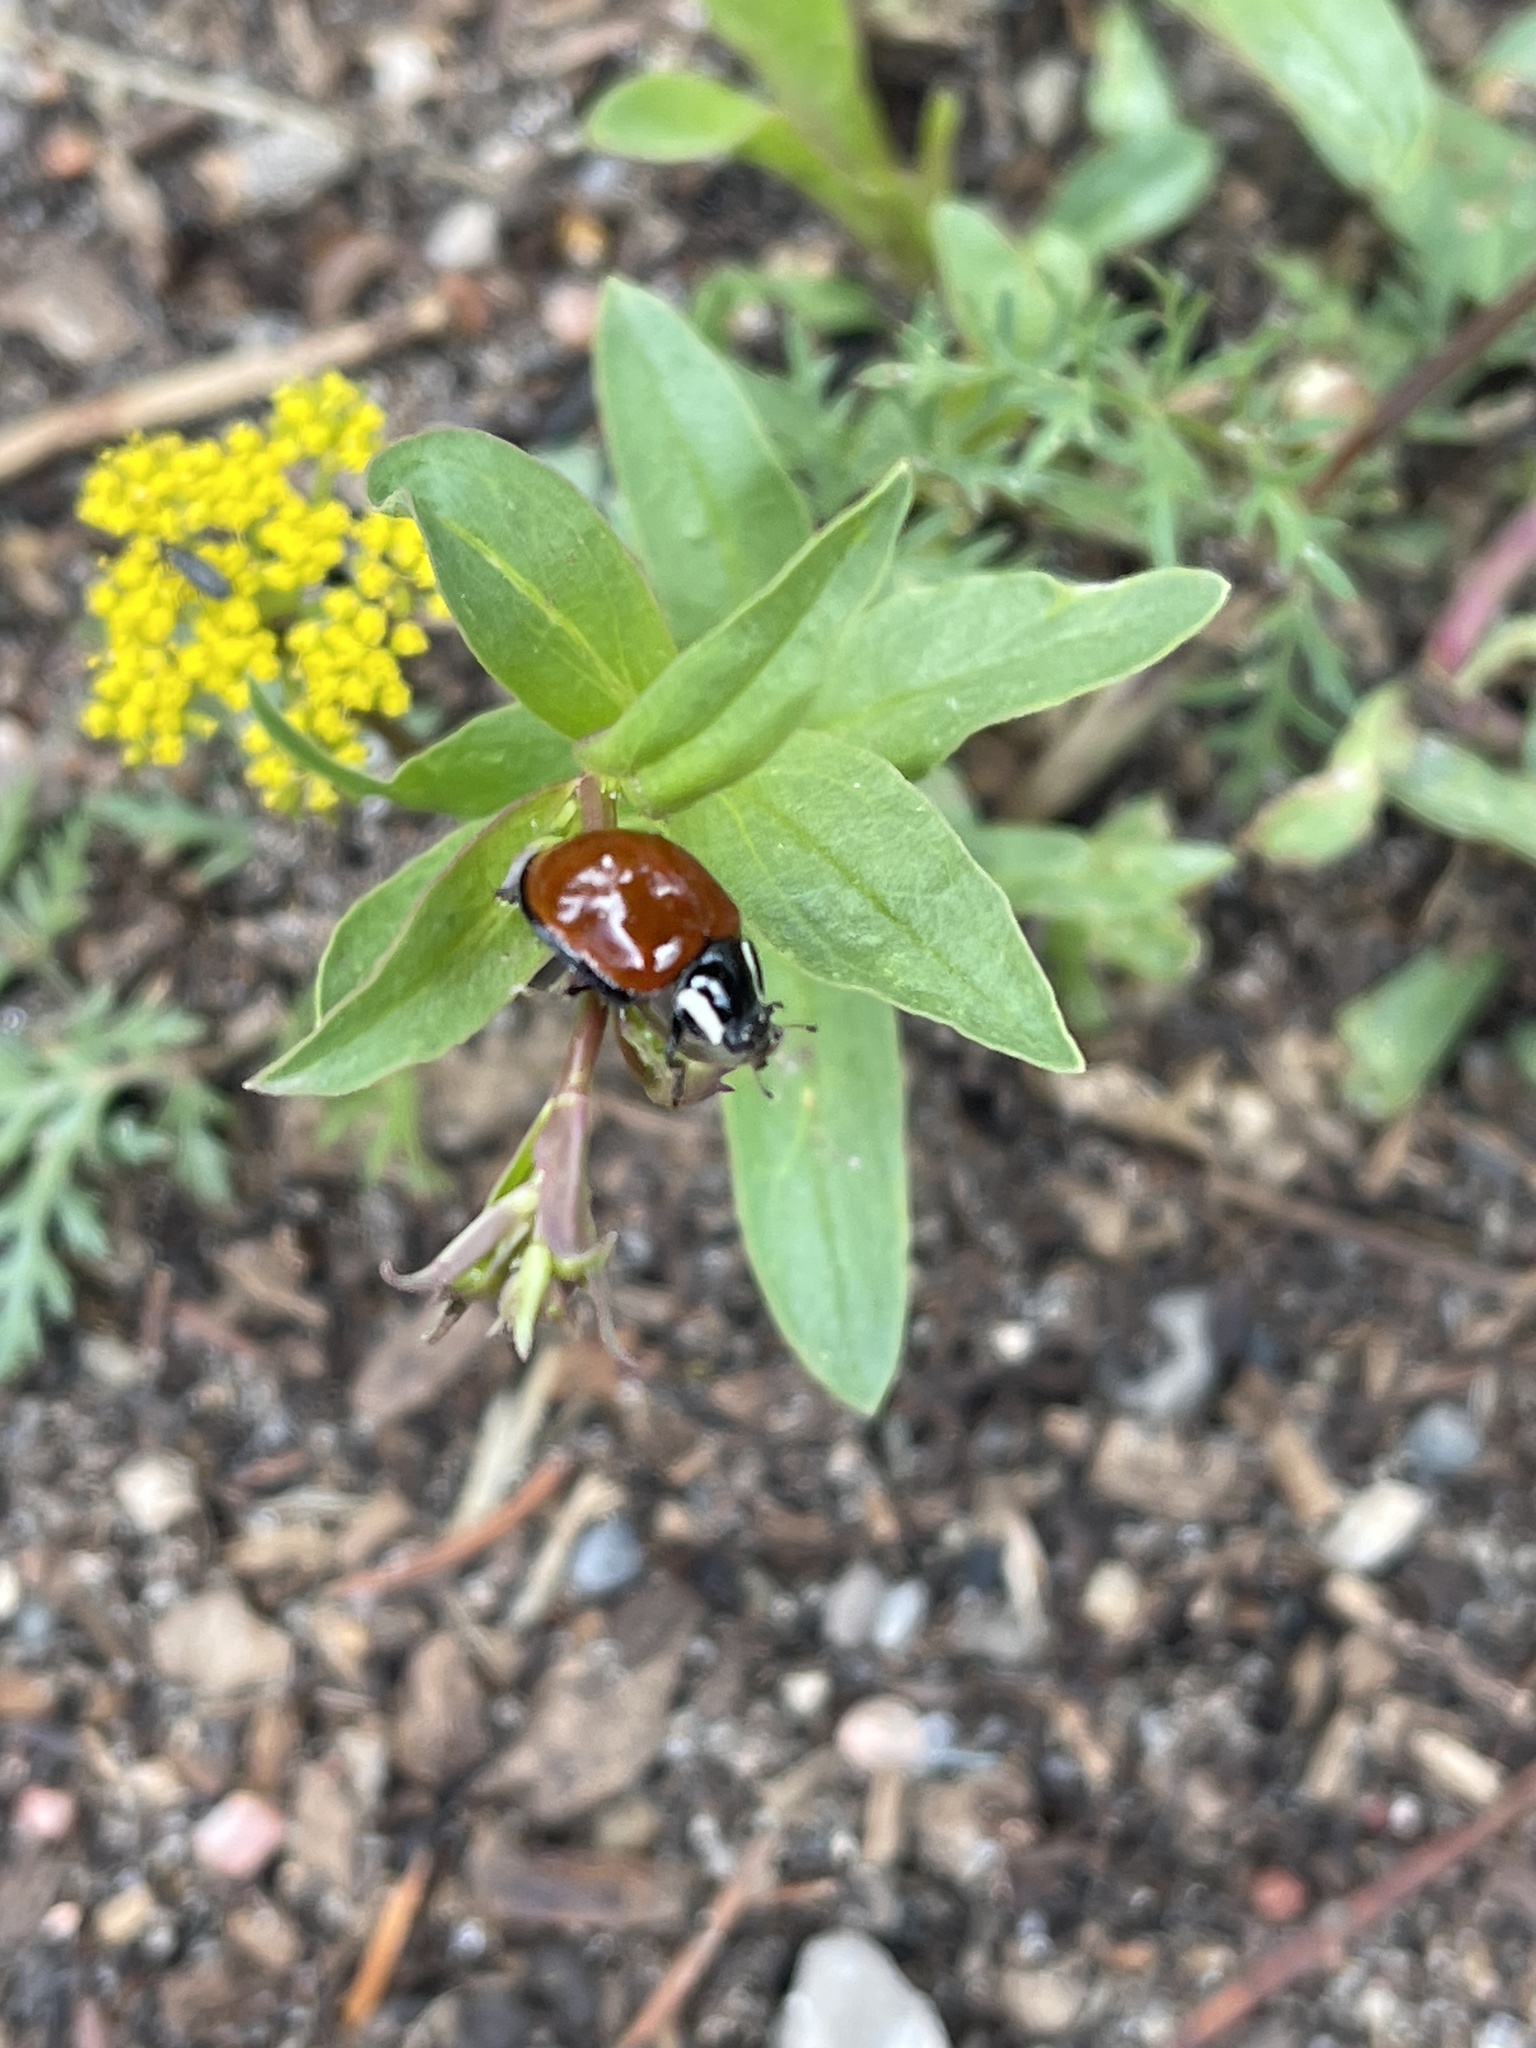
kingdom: Animalia
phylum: Arthropoda
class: Insecta
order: Coleoptera
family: Coccinellidae
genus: Anatis
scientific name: Anatis lecontei
